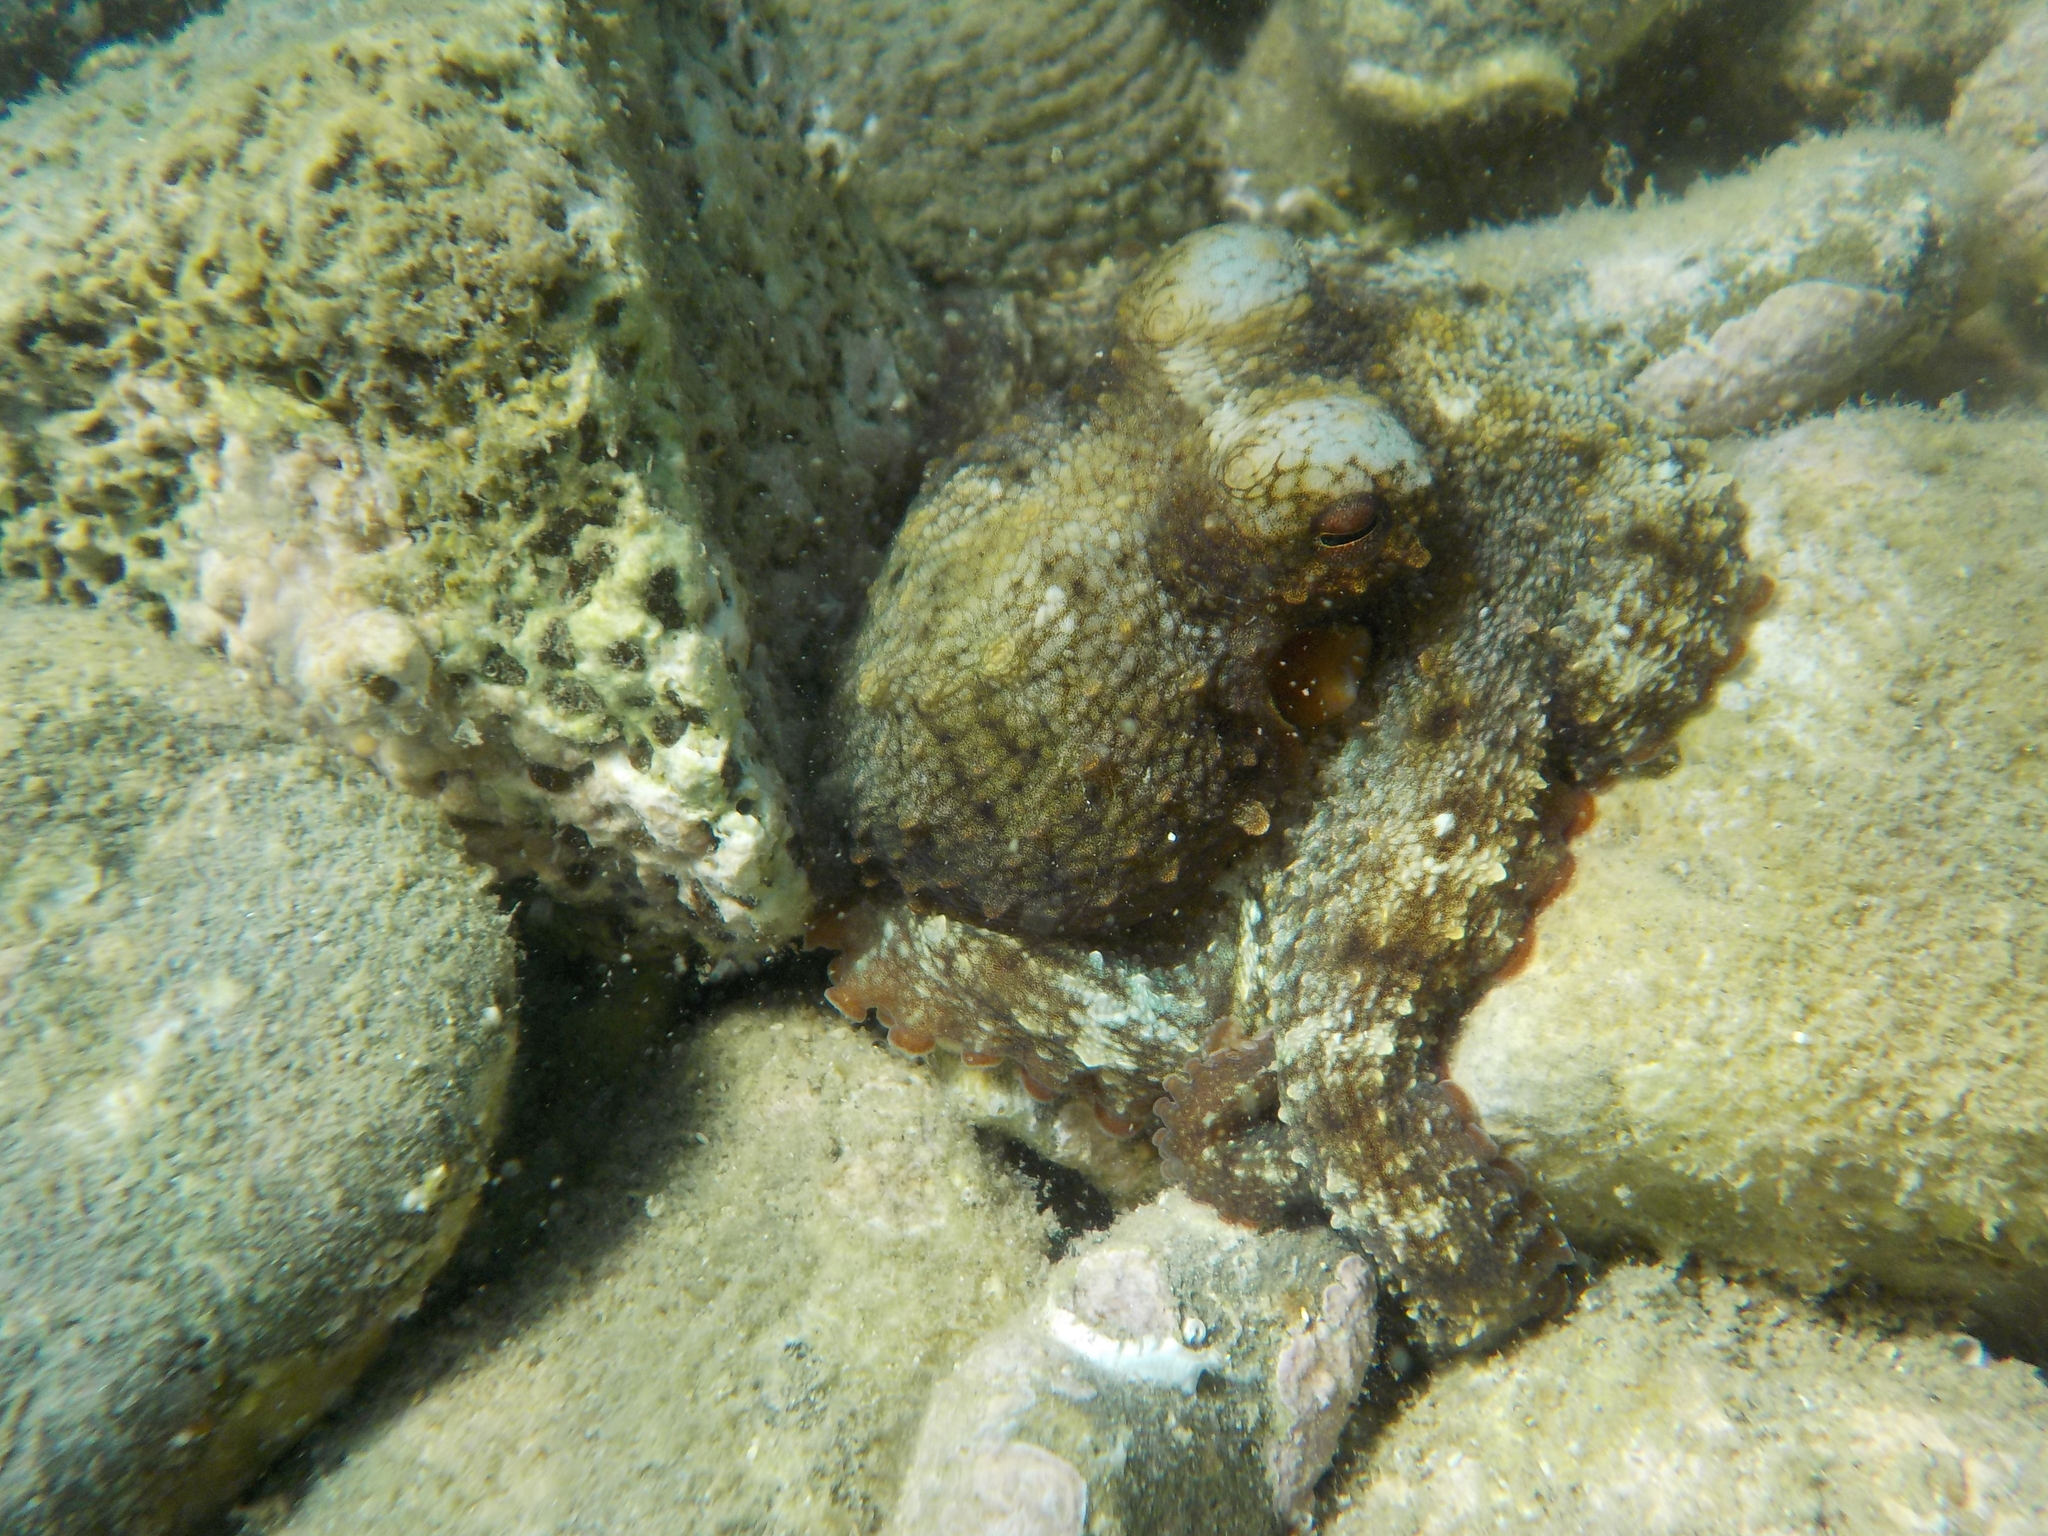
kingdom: Animalia
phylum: Mollusca
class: Cephalopoda
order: Octopoda
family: Octopodidae
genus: Octopus
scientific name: Octopus vulgaris
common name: Common octopus
